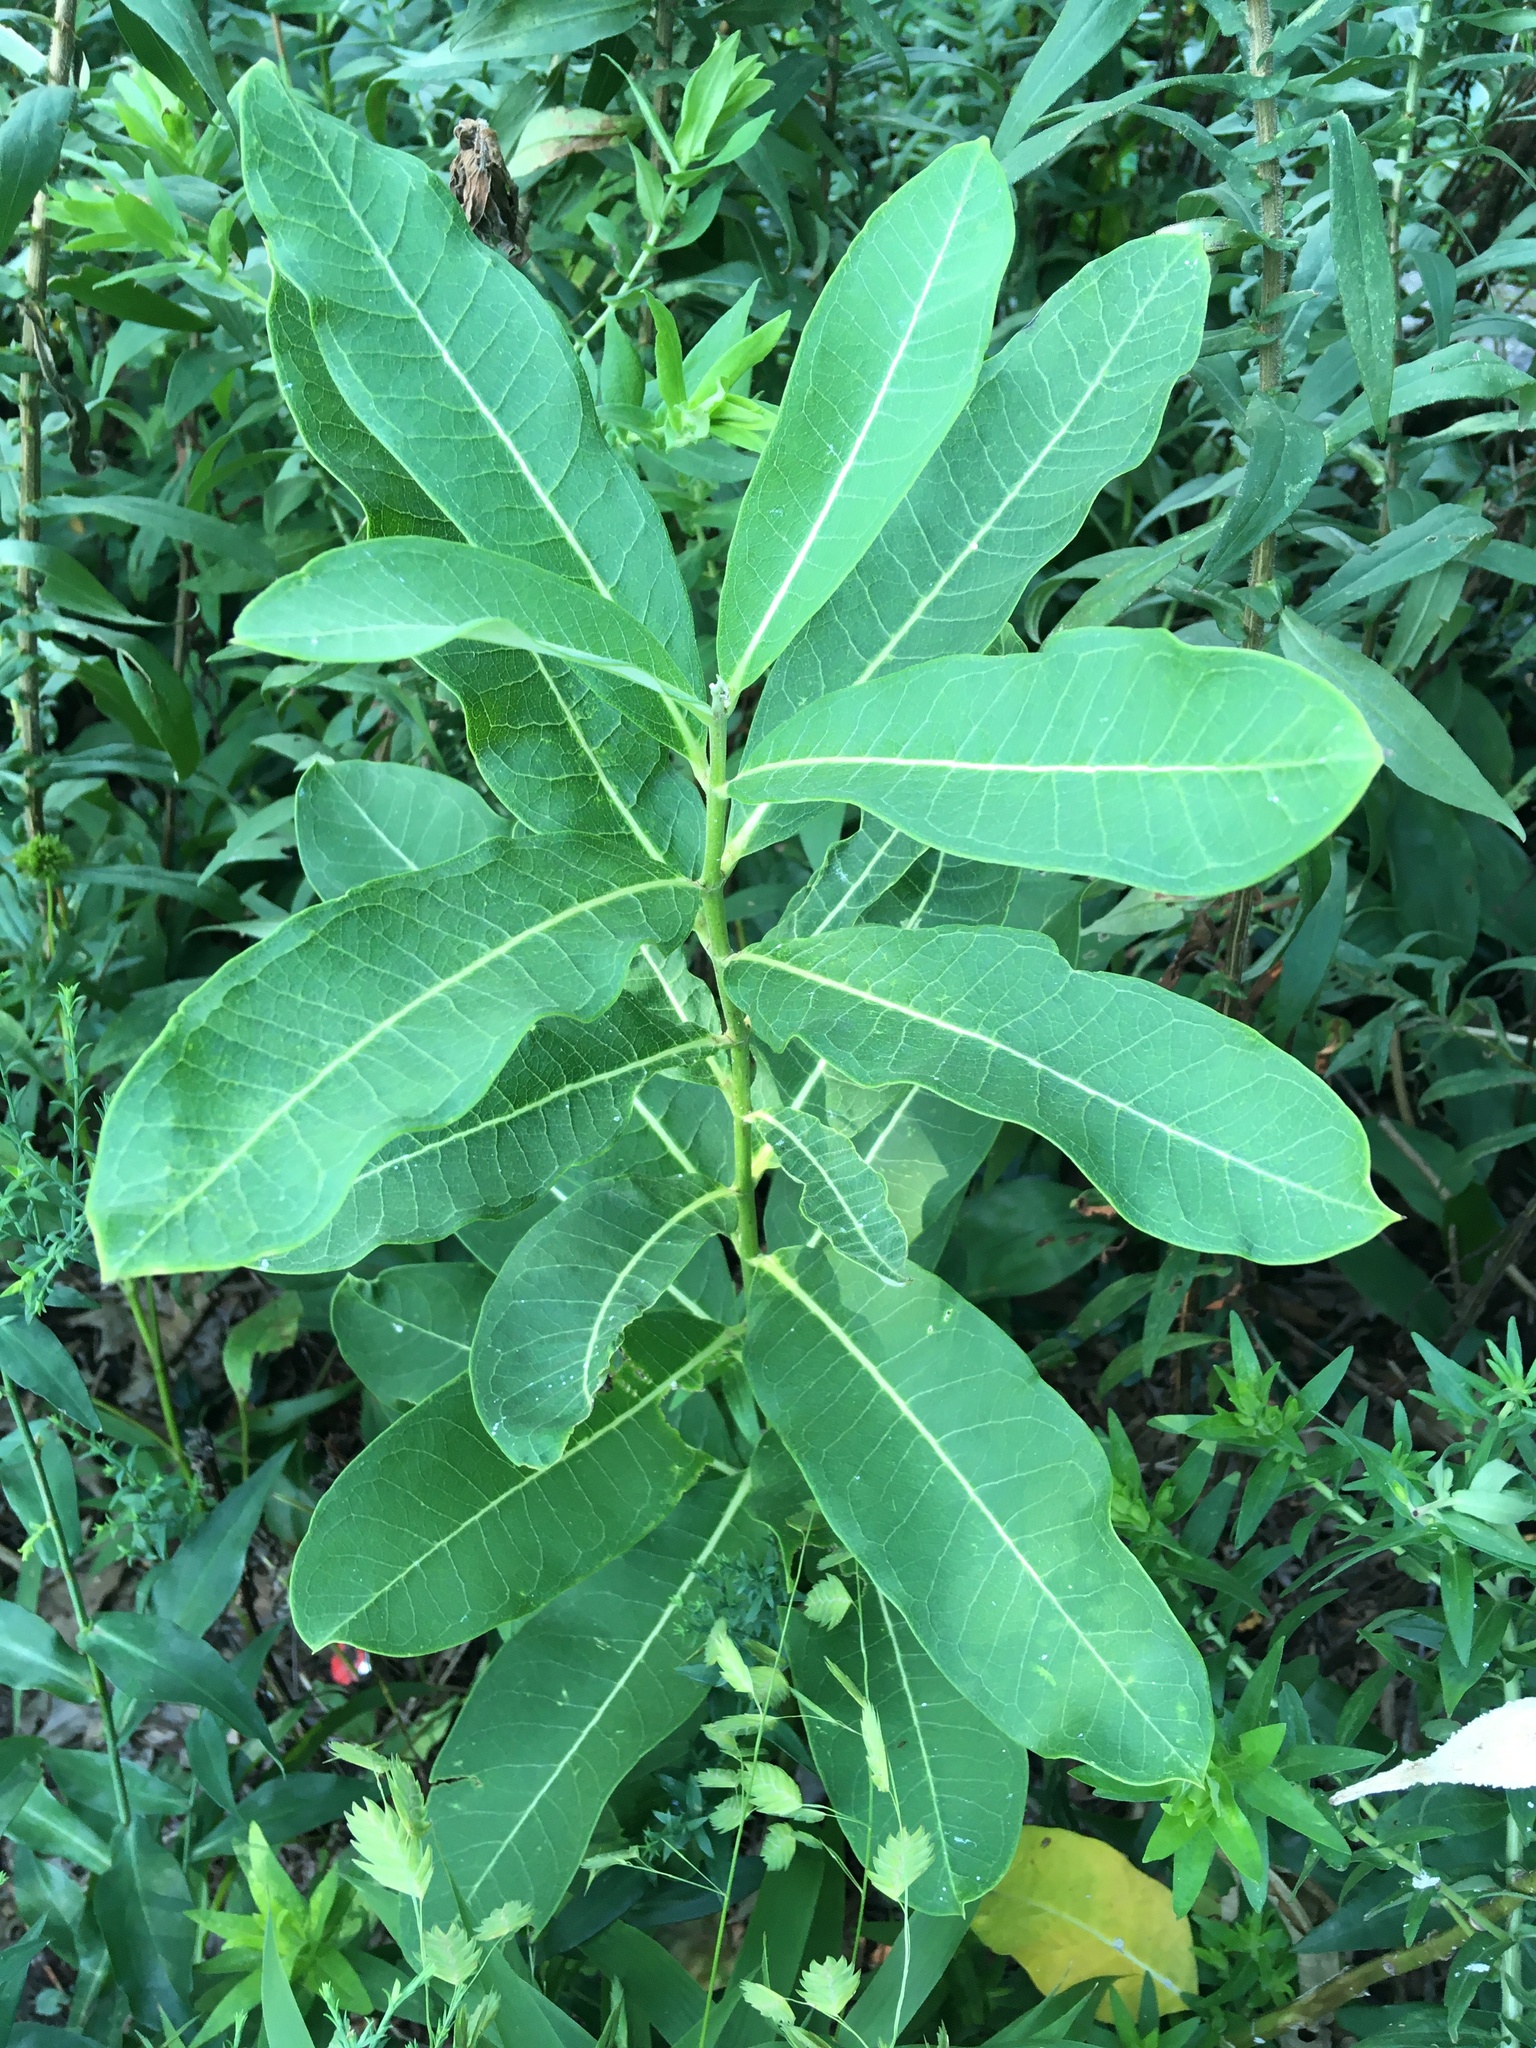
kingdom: Plantae
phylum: Tracheophyta
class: Magnoliopsida
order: Gentianales
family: Apocynaceae
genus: Asclepias
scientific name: Asclepias syriaca
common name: Common milkweed
